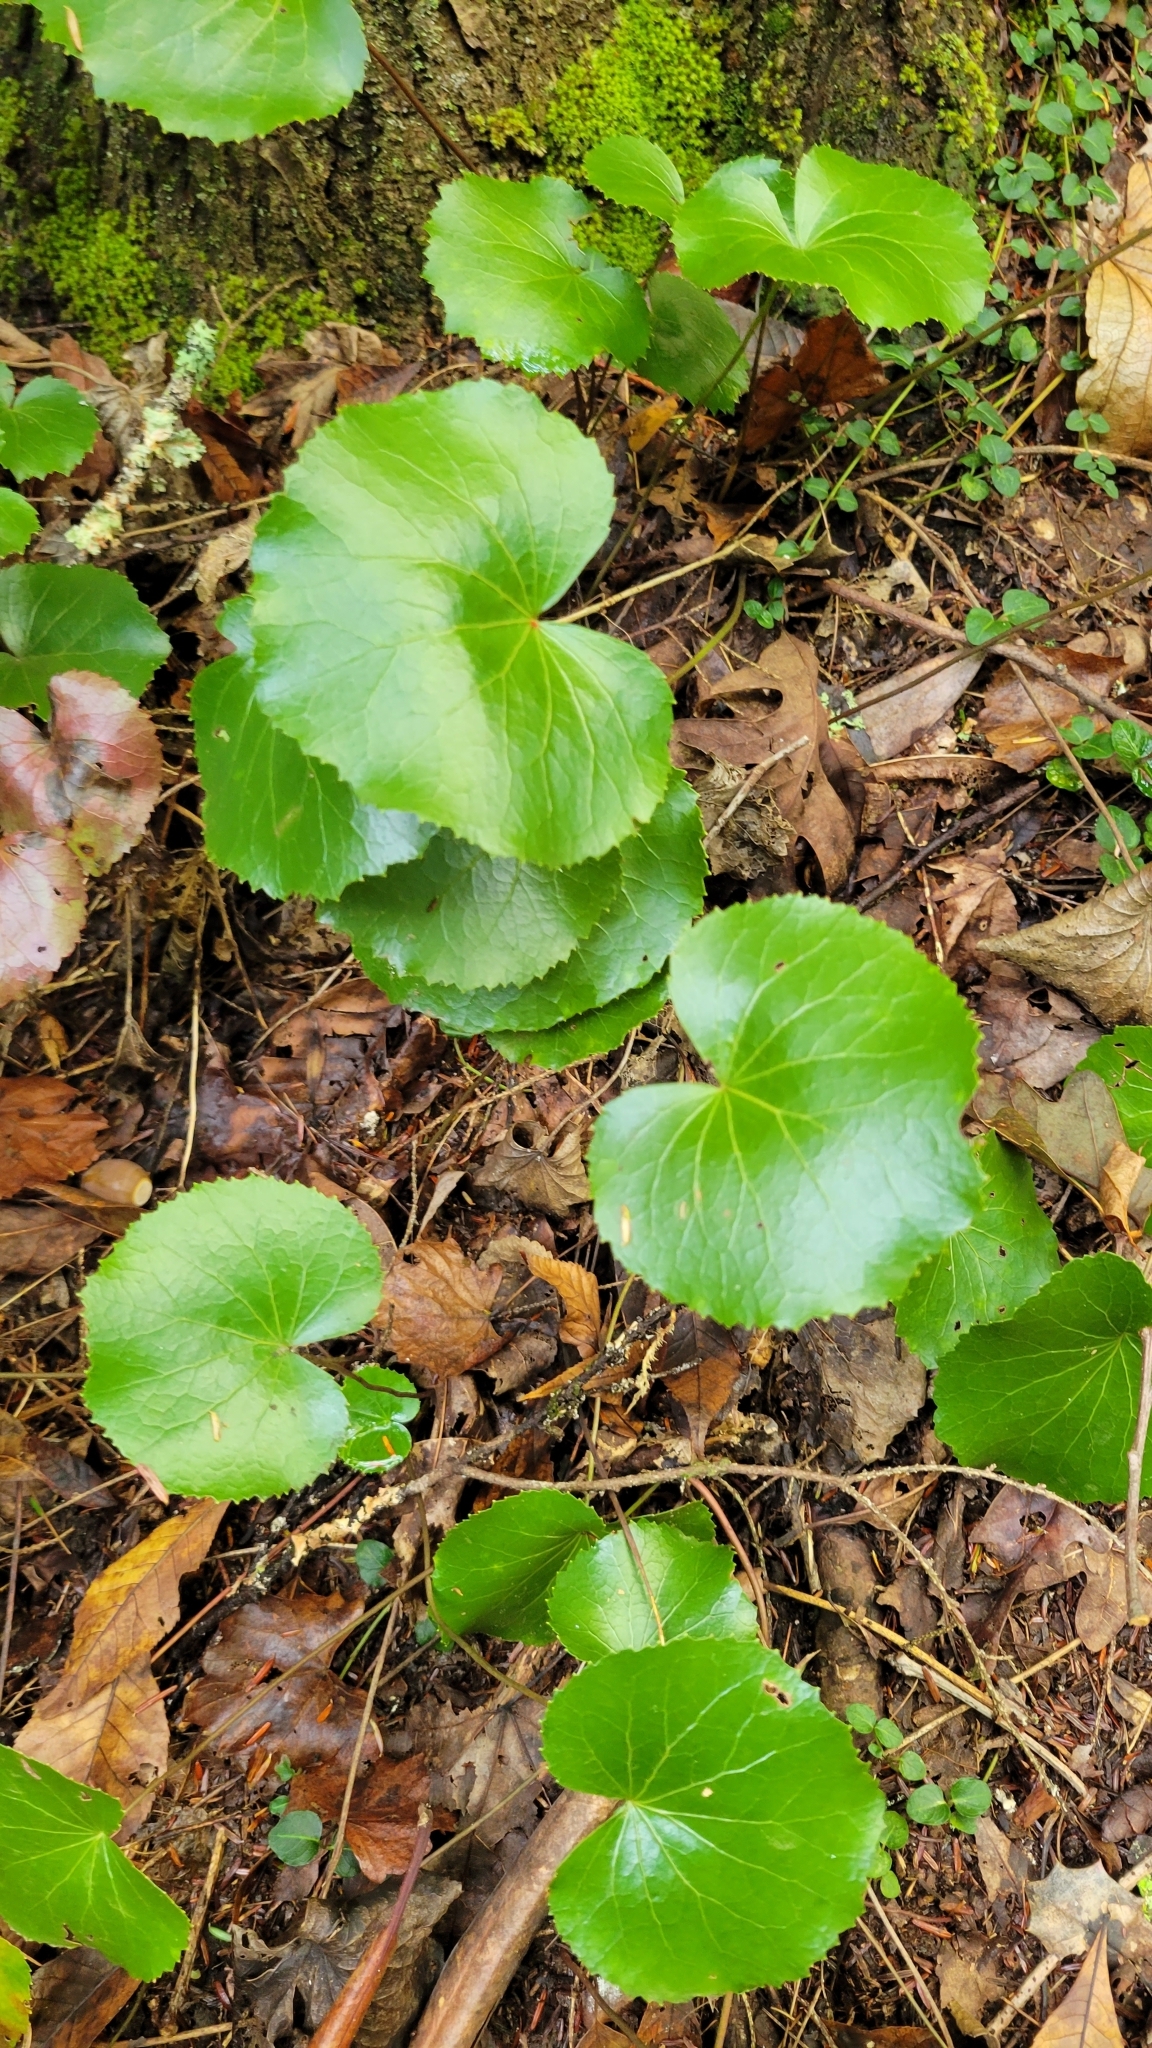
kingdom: Plantae
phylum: Tracheophyta
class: Magnoliopsida
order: Ericales
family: Diapensiaceae
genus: Galax
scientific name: Galax urceolata
